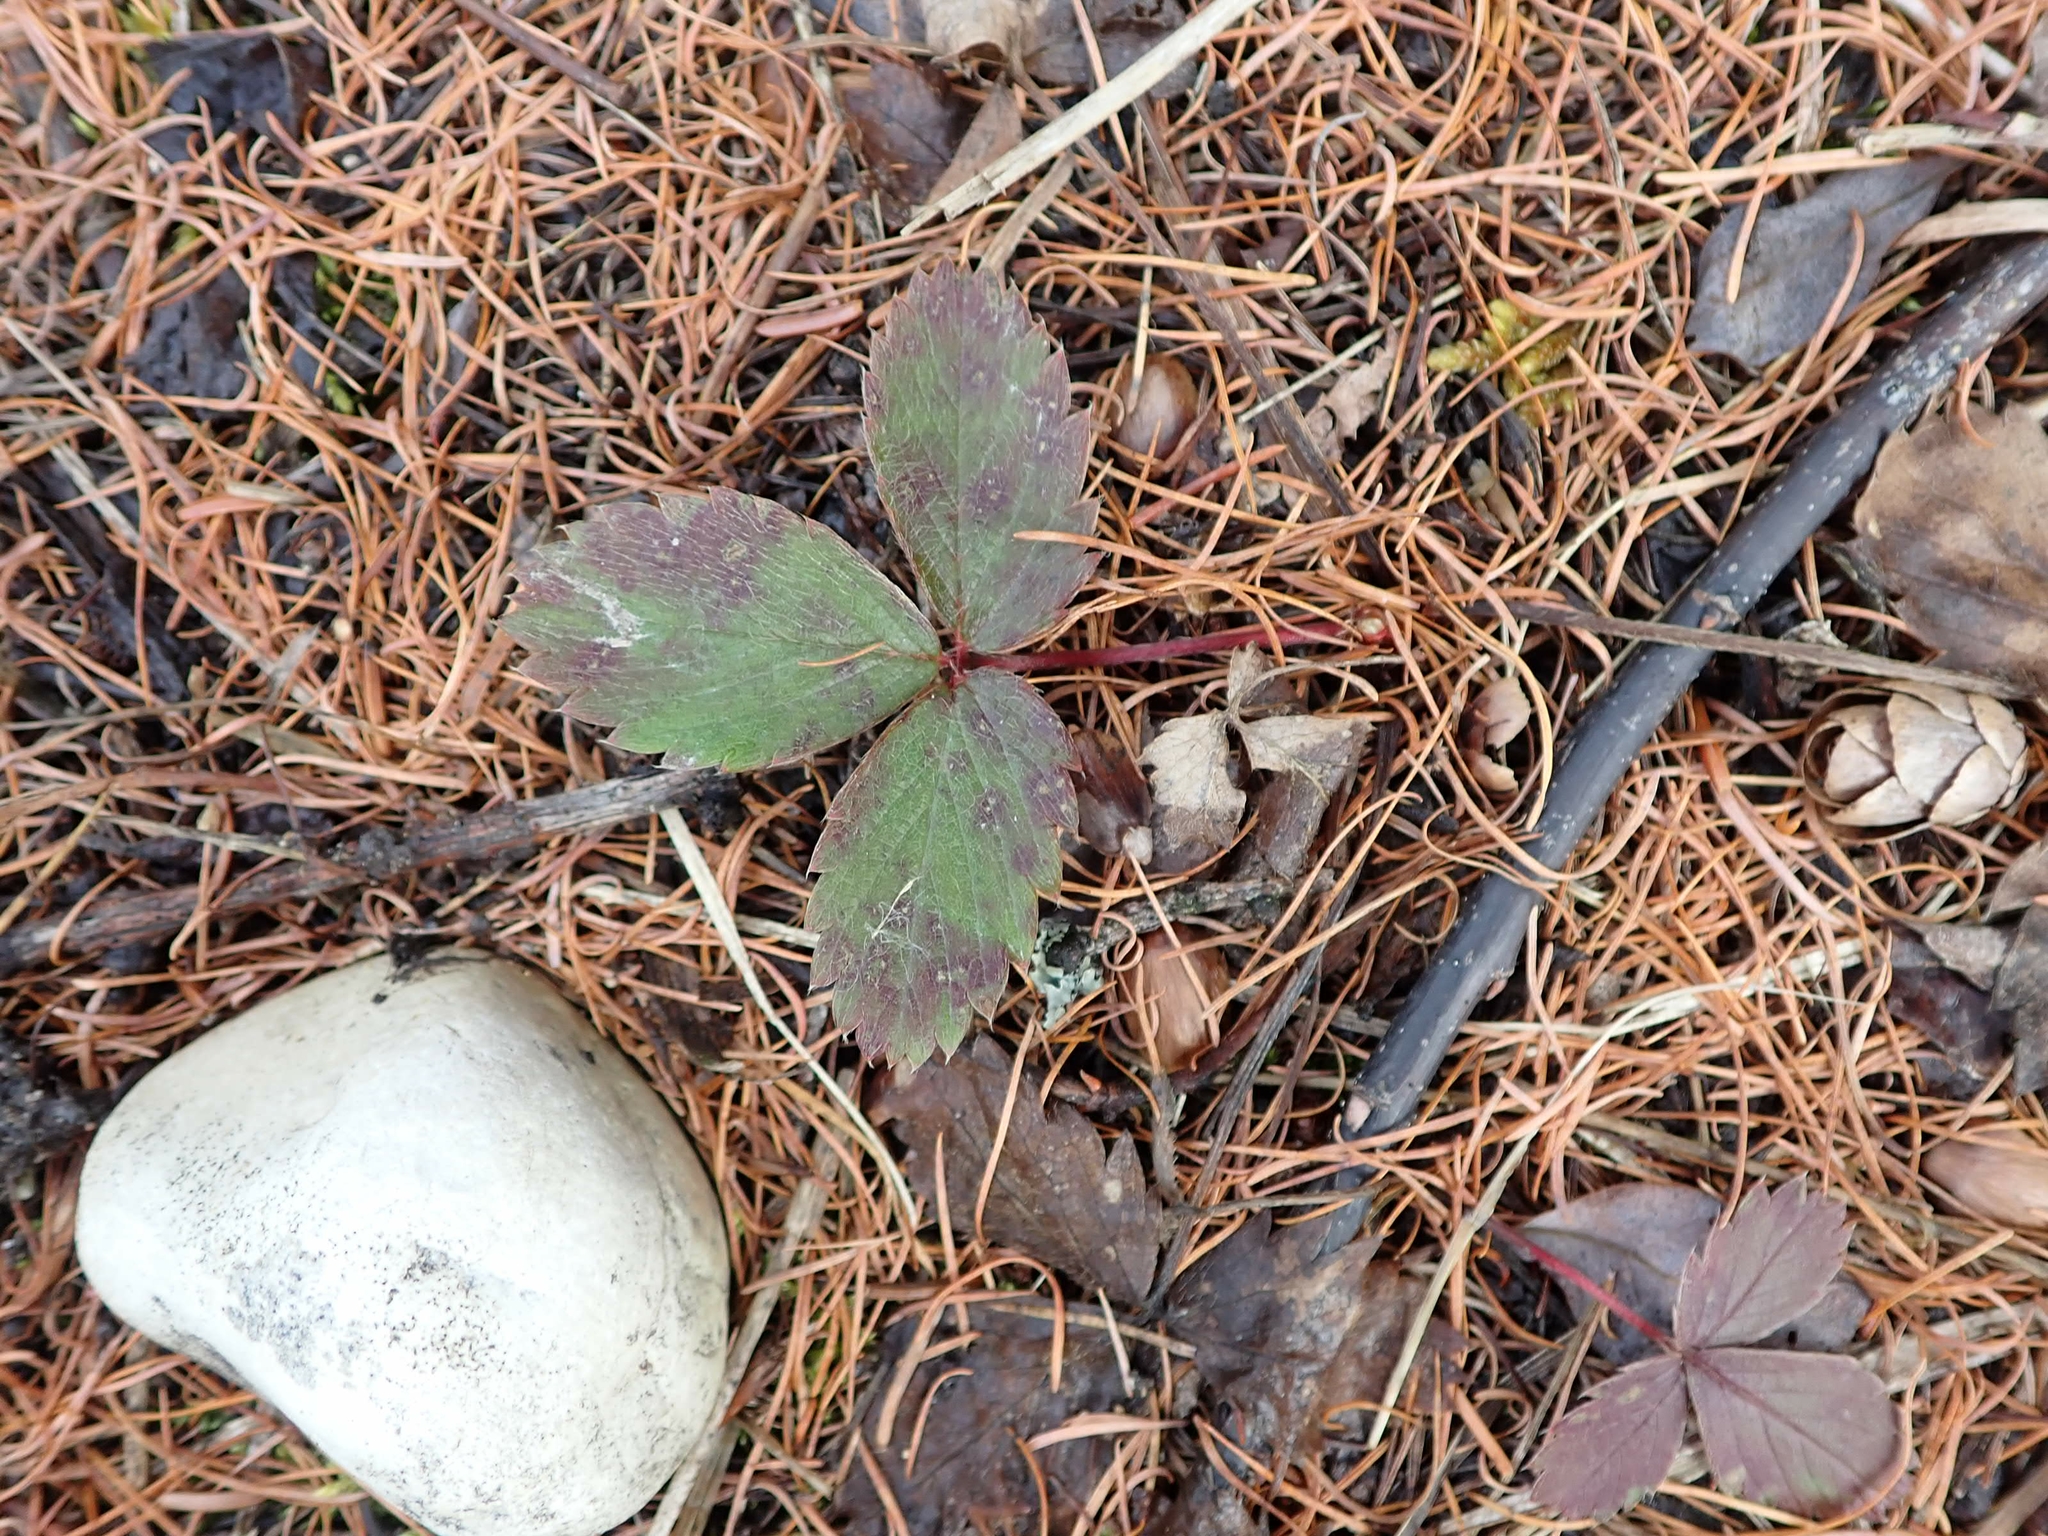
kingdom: Plantae
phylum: Tracheophyta
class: Magnoliopsida
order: Rosales
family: Rosaceae
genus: Fragaria
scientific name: Fragaria virginiana
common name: Thickleaved wild strawberry
